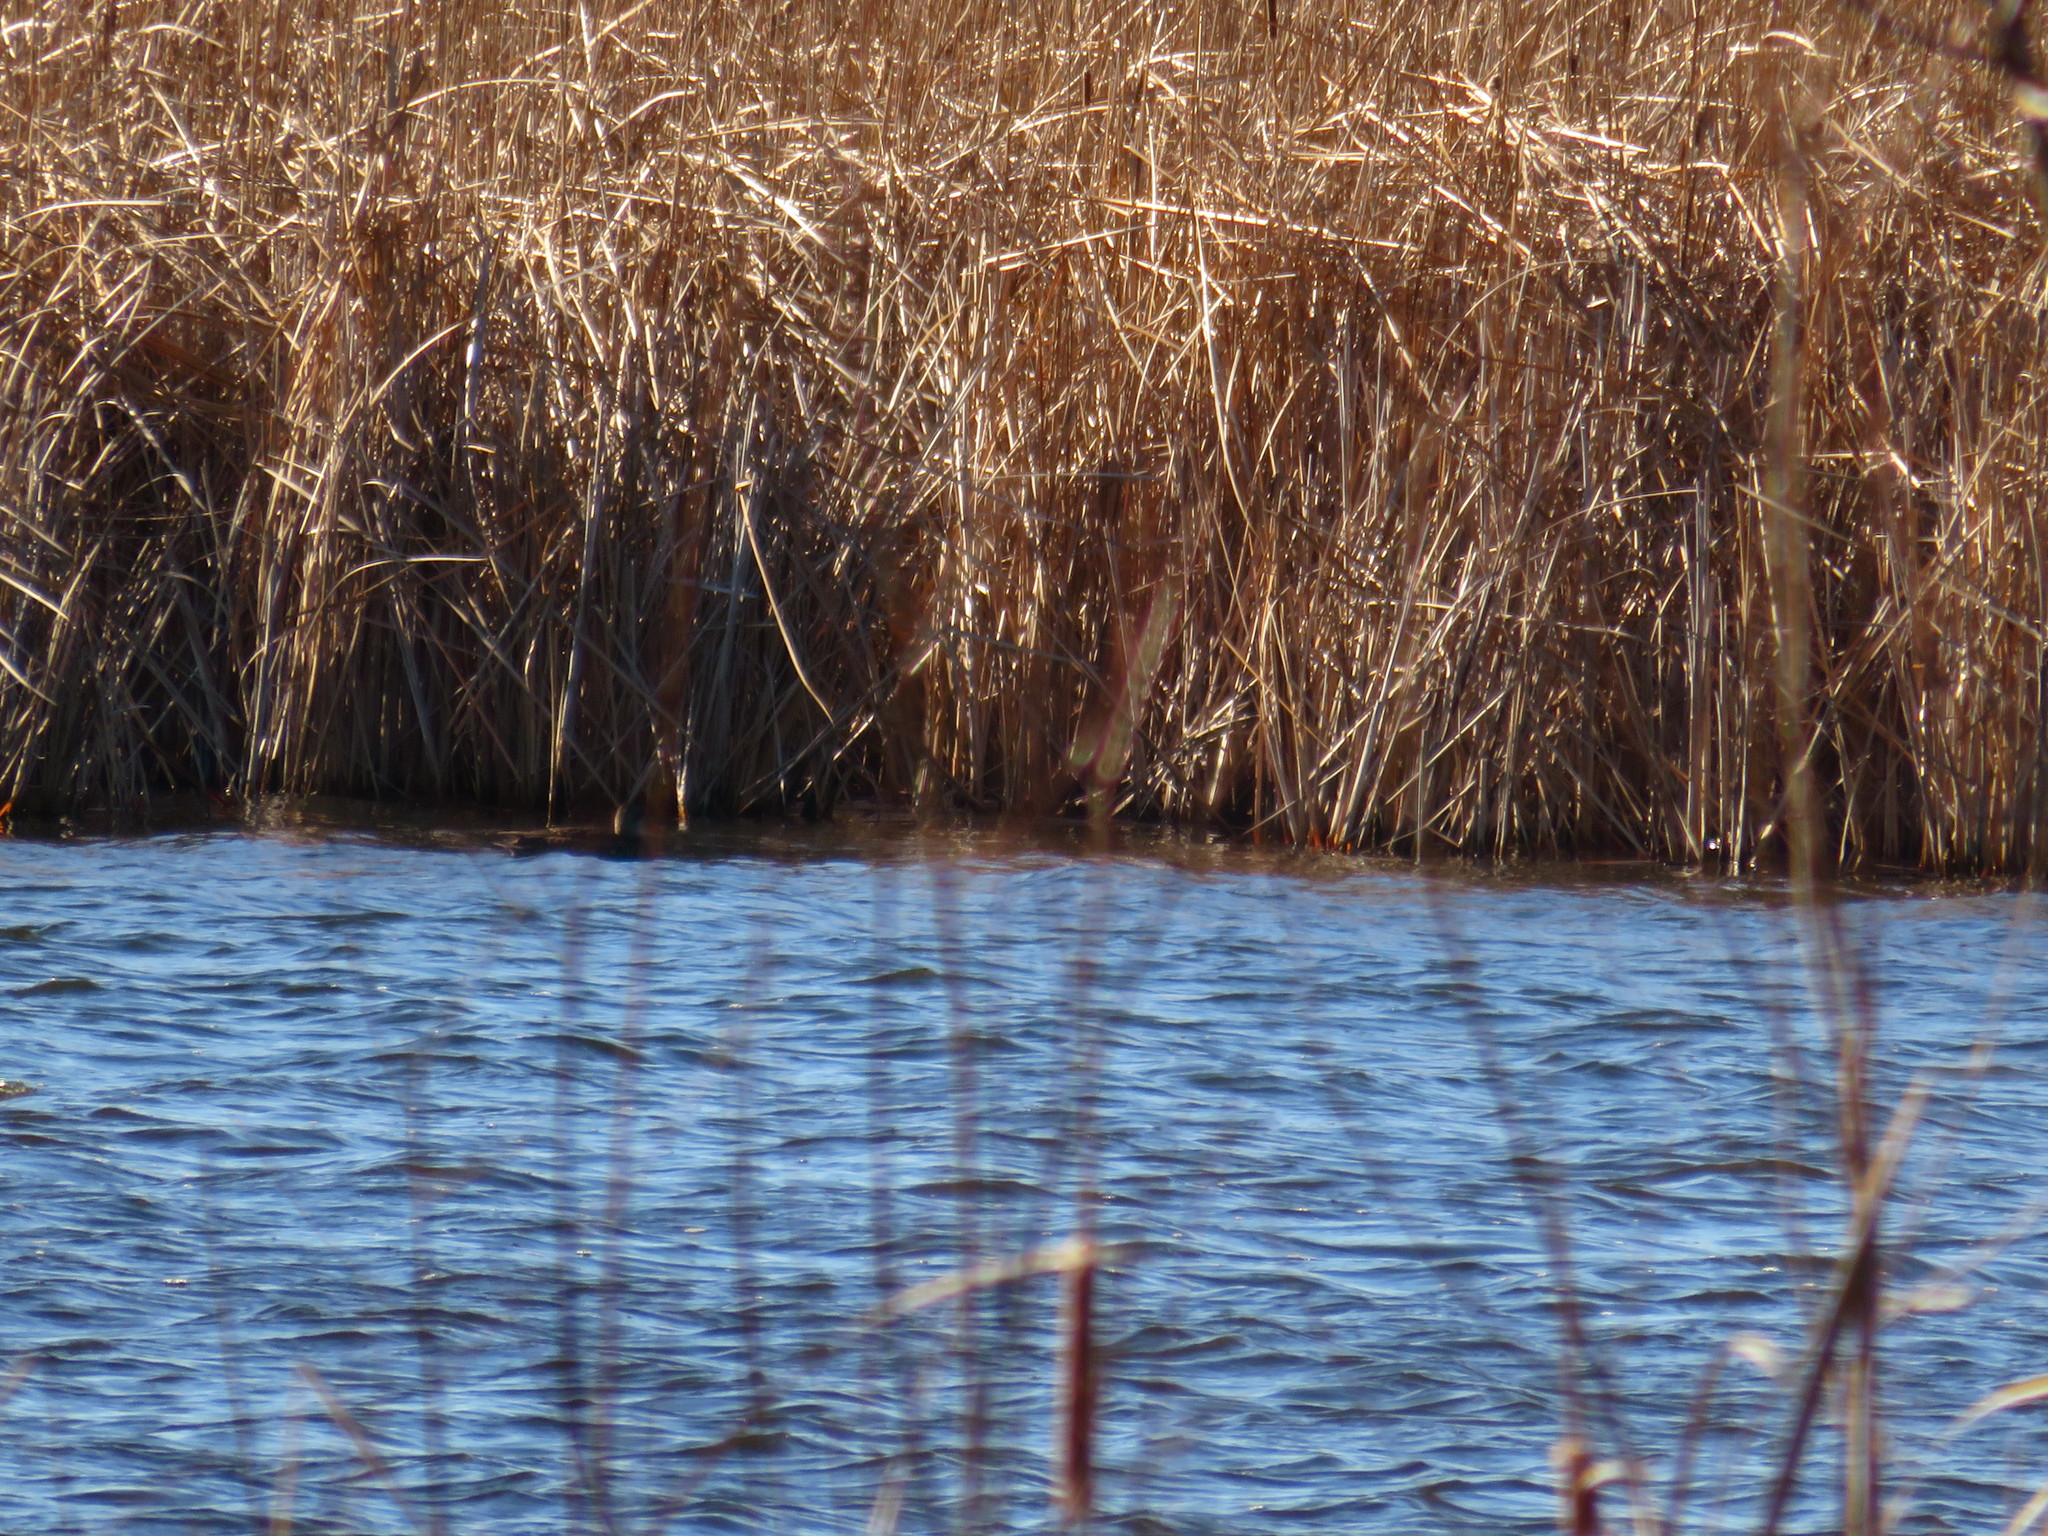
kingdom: Animalia
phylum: Chordata
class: Aves
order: Anseriformes
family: Anatidae
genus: Anas
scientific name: Anas rubripes
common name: American black duck
